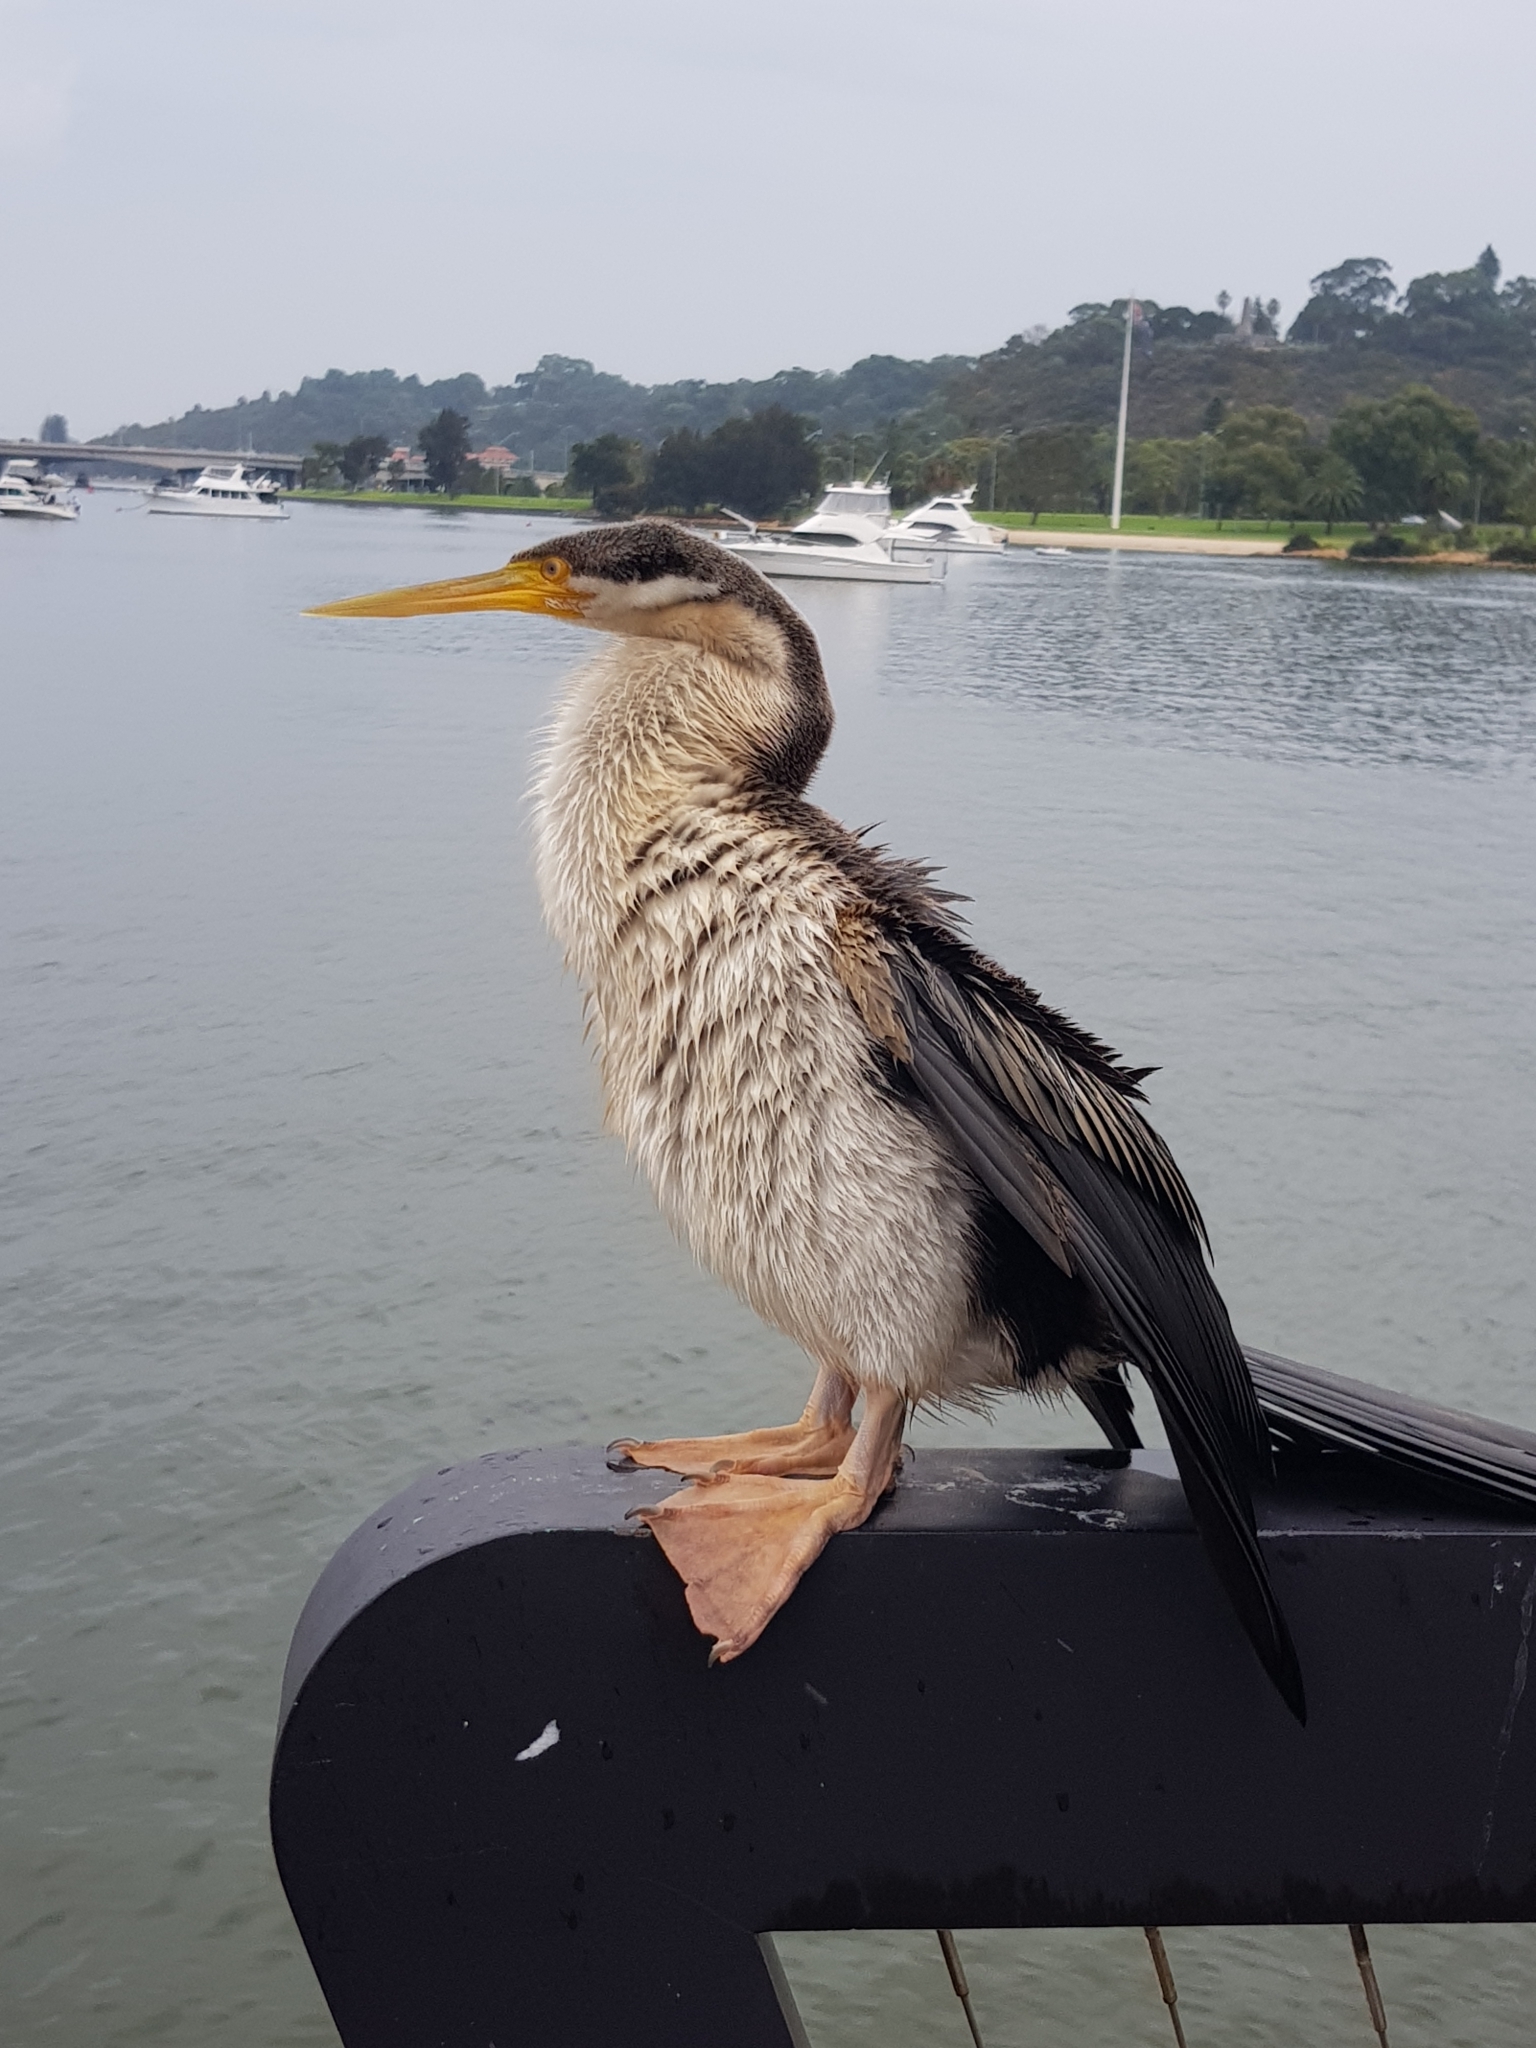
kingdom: Animalia
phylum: Chordata
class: Aves
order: Suliformes
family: Anhingidae
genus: Anhinga
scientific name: Anhinga novaehollandiae
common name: Australasian darter
